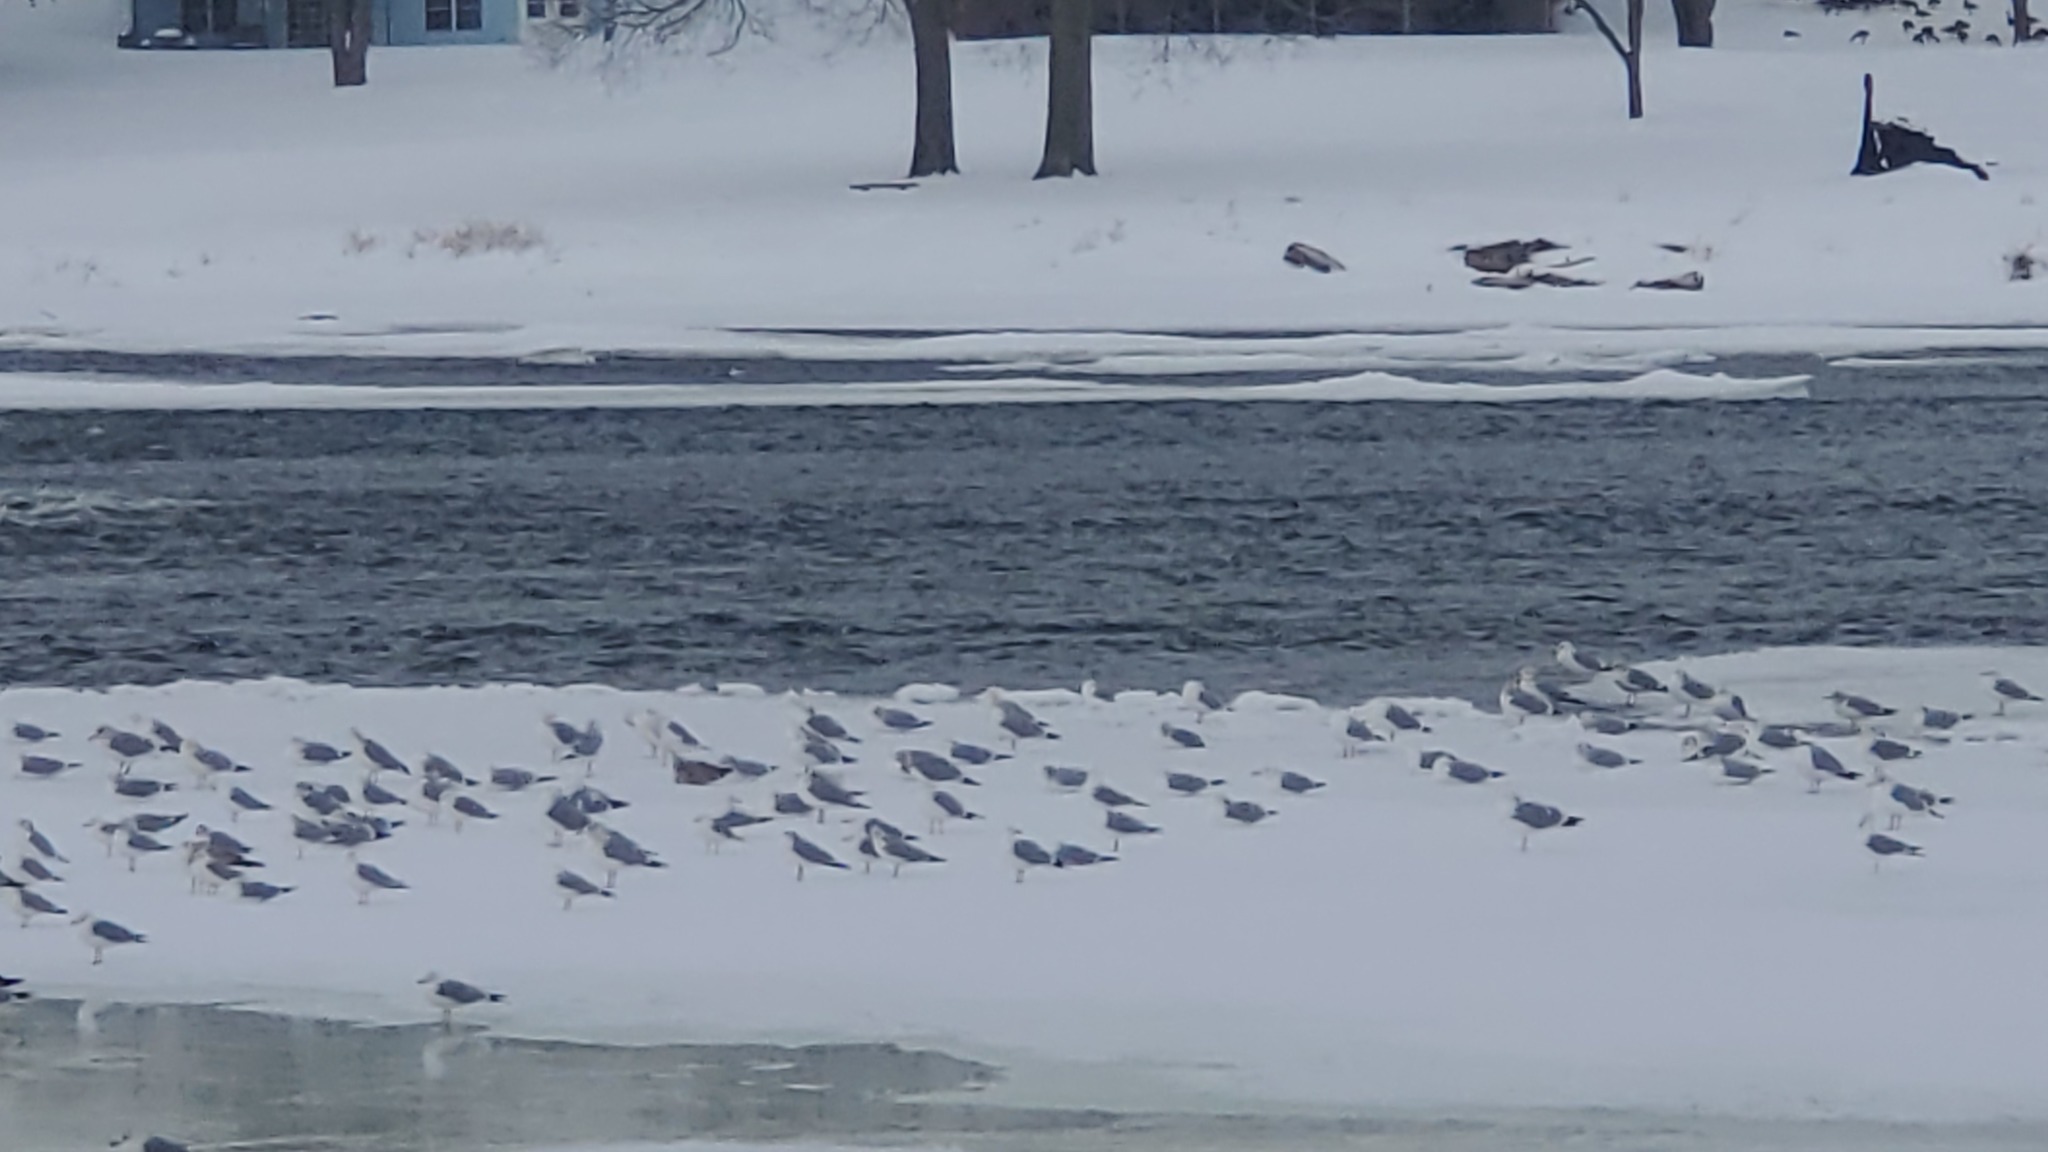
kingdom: Animalia
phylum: Chordata
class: Aves
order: Charadriiformes
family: Laridae
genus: Larus
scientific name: Larus delawarensis
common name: Ring-billed gull
